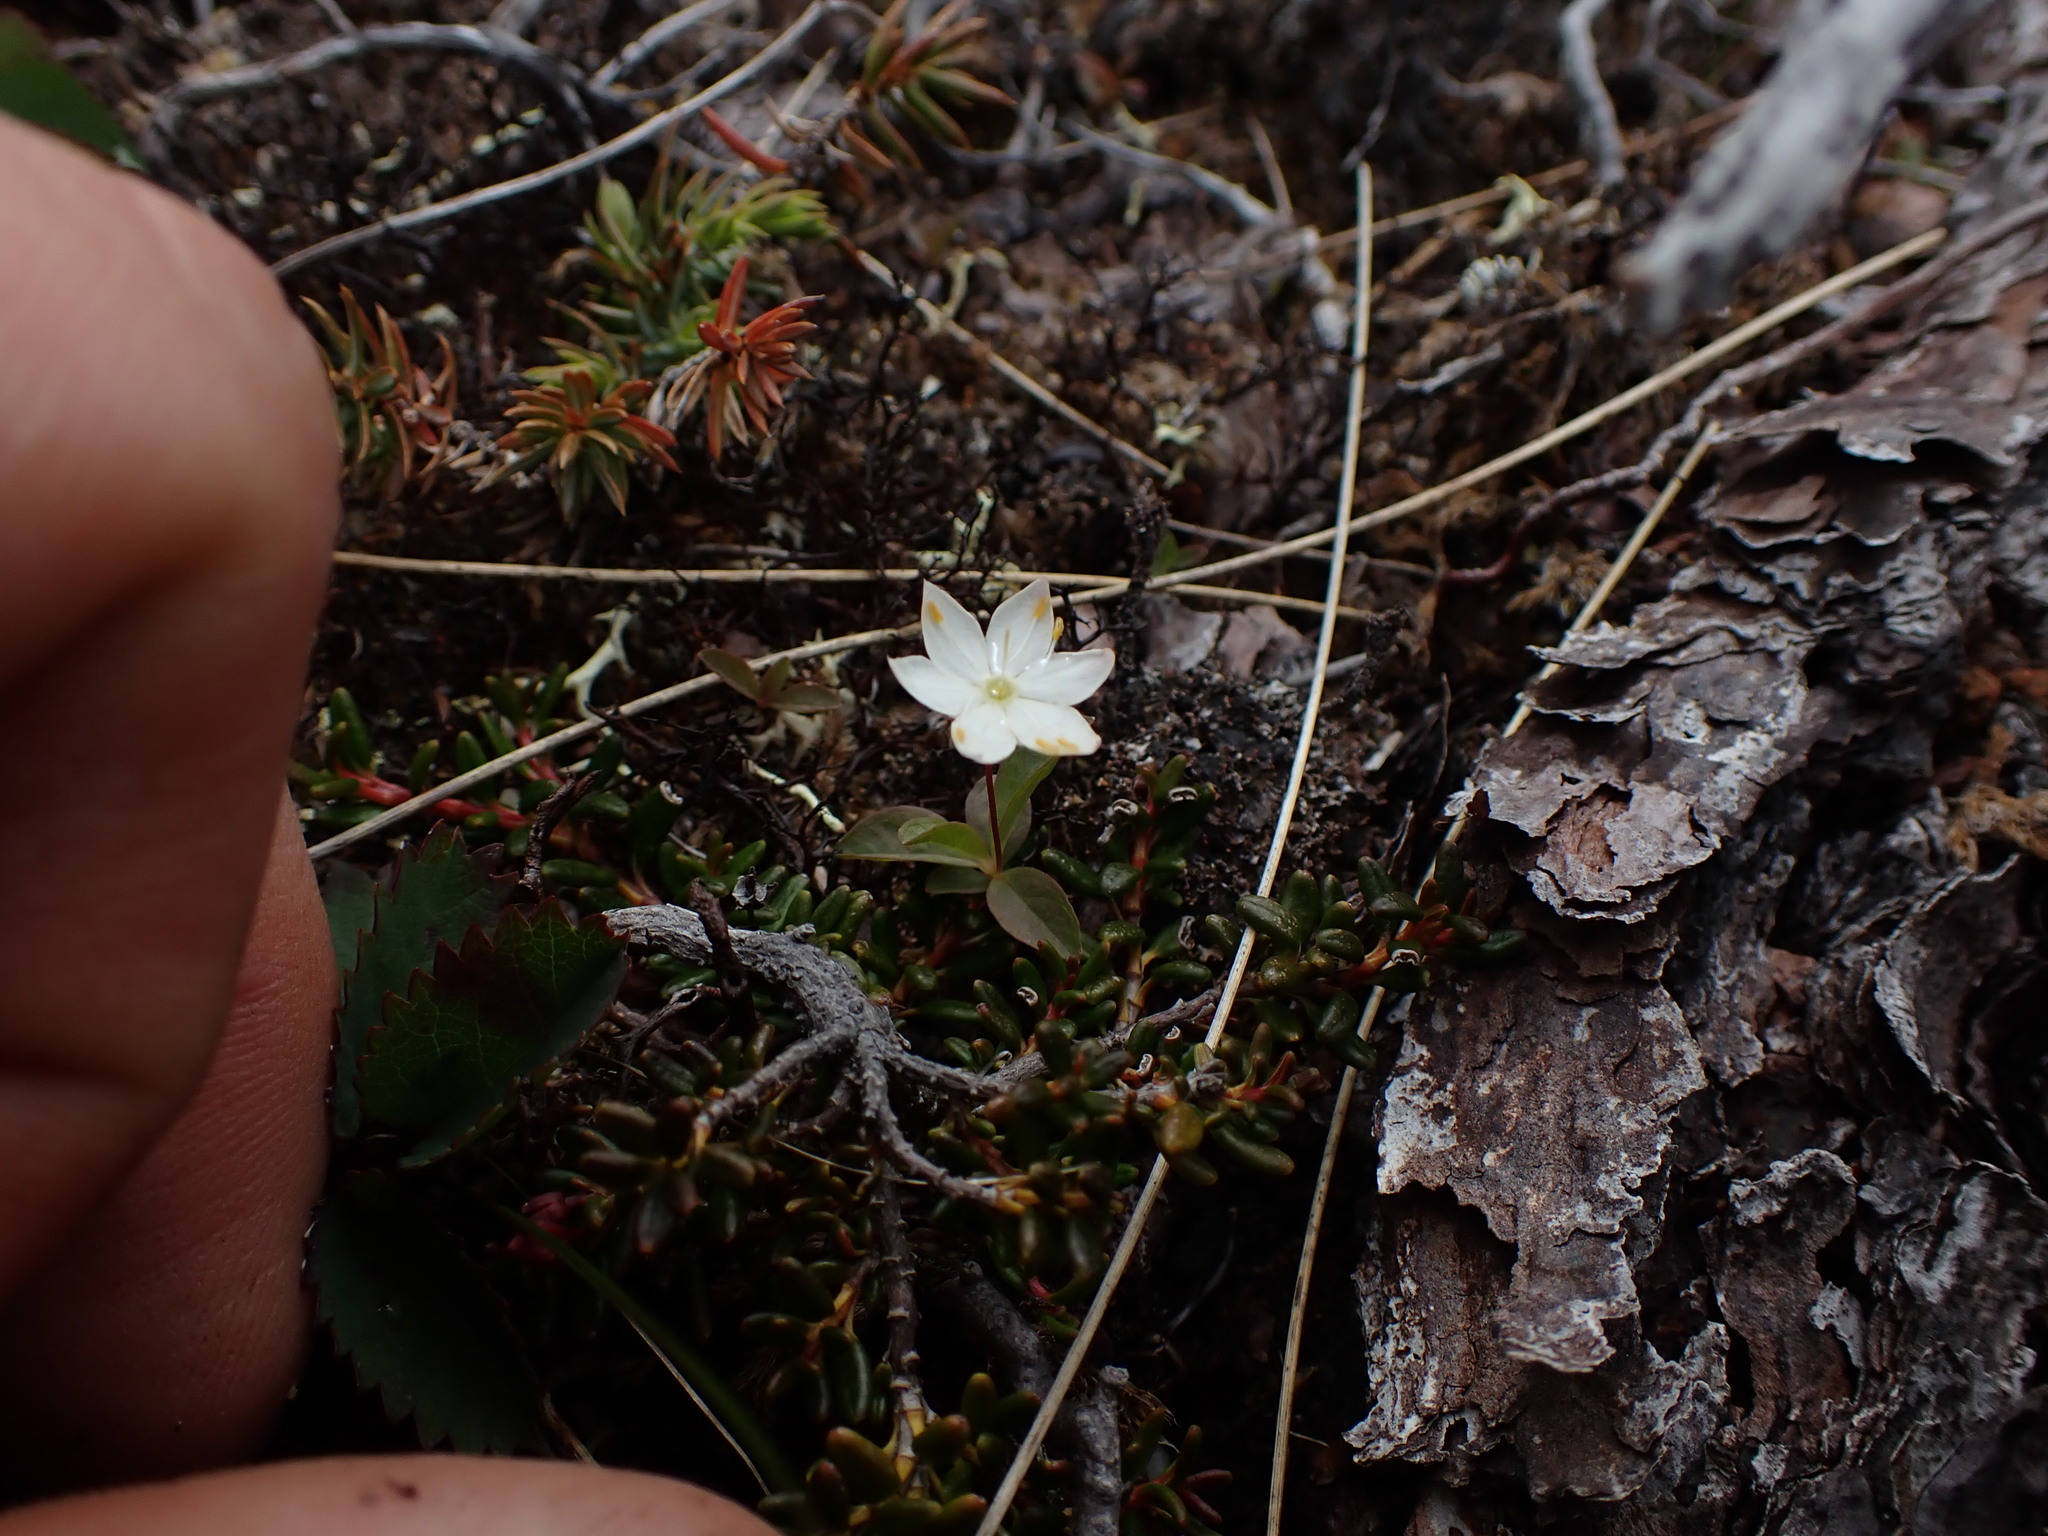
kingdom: Plantae
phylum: Tracheophyta
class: Magnoliopsida
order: Ericales
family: Primulaceae
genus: Lysimachia
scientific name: Lysimachia europaea
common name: Arctic starflower
